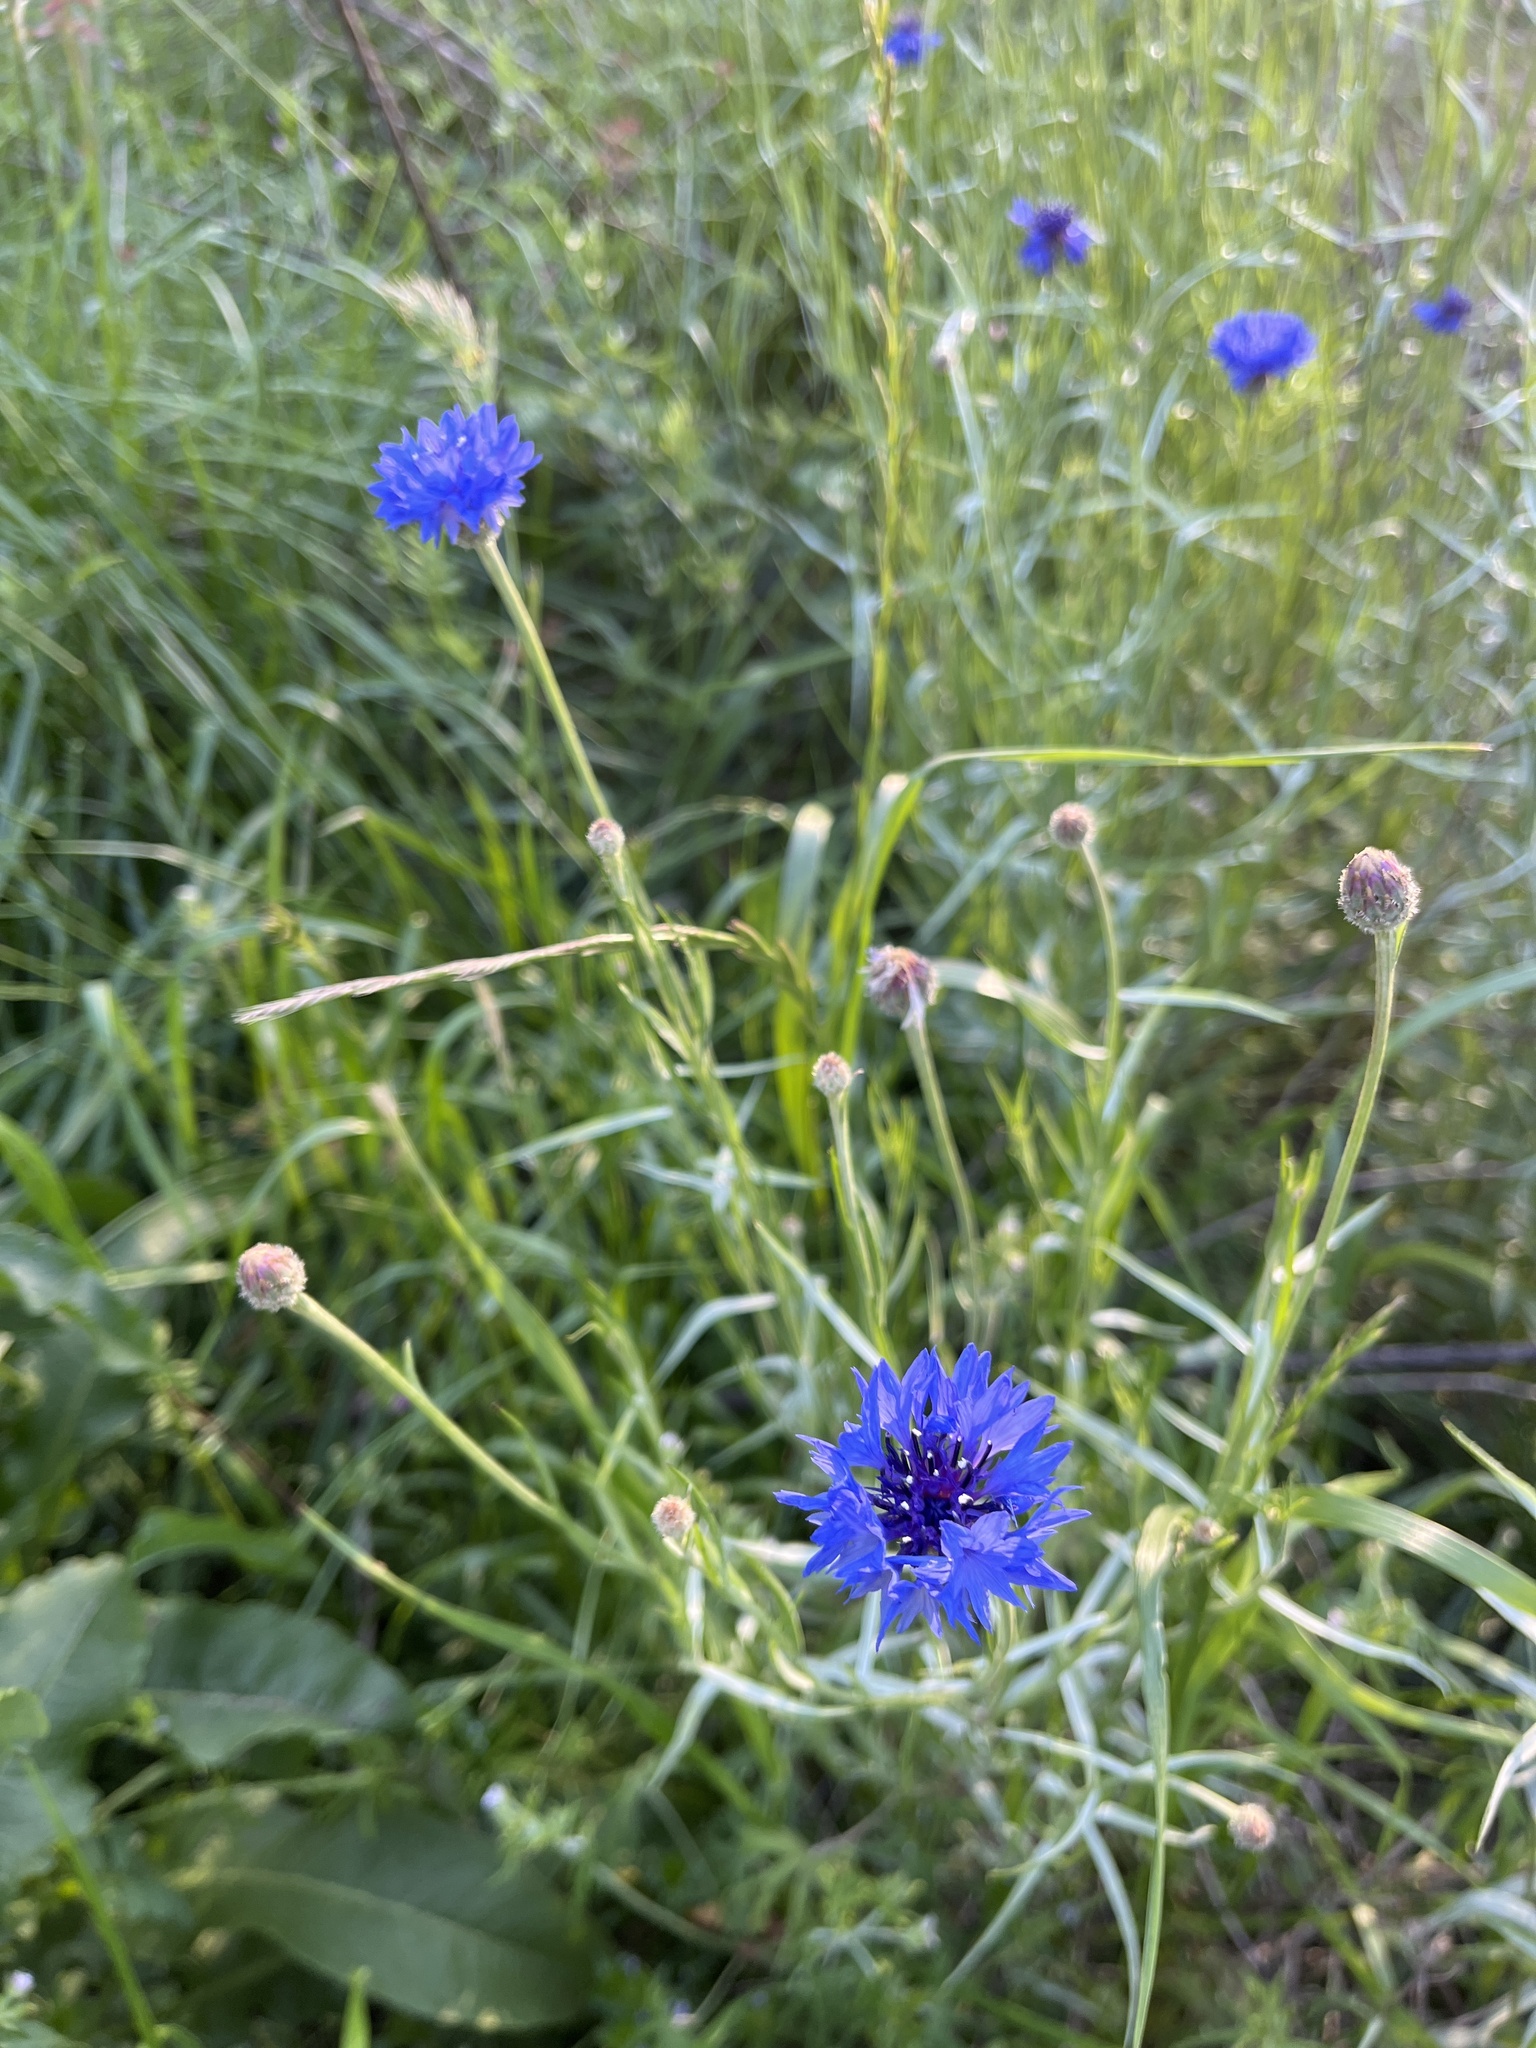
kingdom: Plantae
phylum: Tracheophyta
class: Magnoliopsida
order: Asterales
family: Asteraceae
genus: Centaurea
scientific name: Centaurea cyanus
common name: Cornflower
